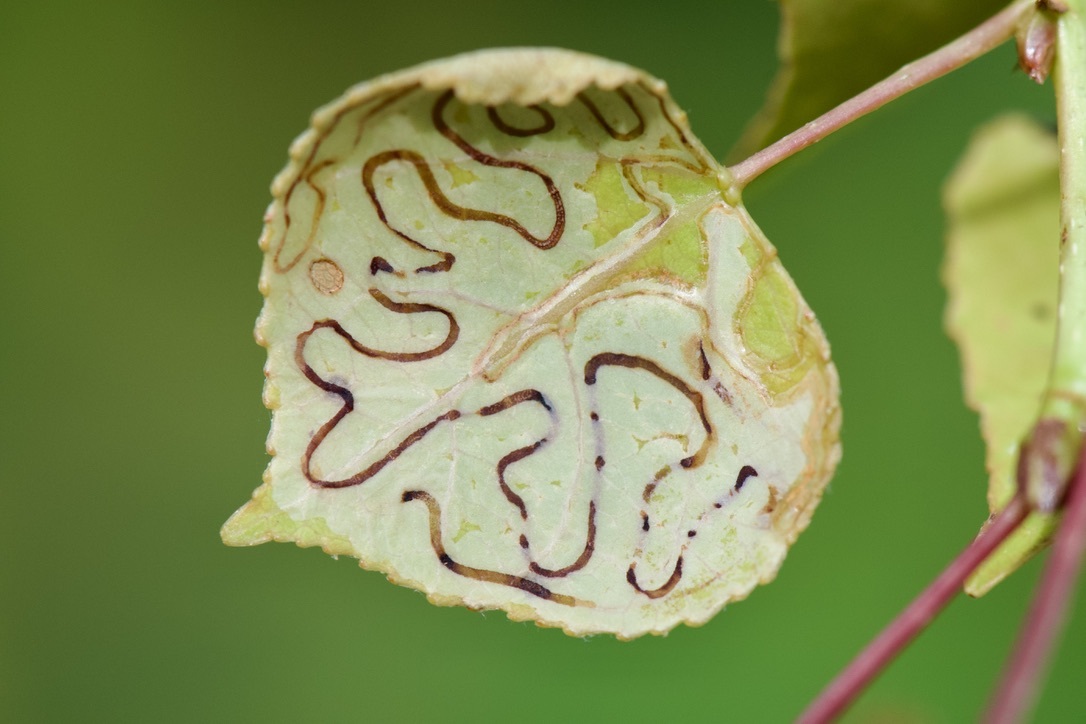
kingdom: Animalia
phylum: Arthropoda
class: Insecta
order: Lepidoptera
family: Gracillariidae
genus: Phyllocnistis
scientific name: Phyllocnistis populiella
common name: Aspen serpentine leafminer moth
